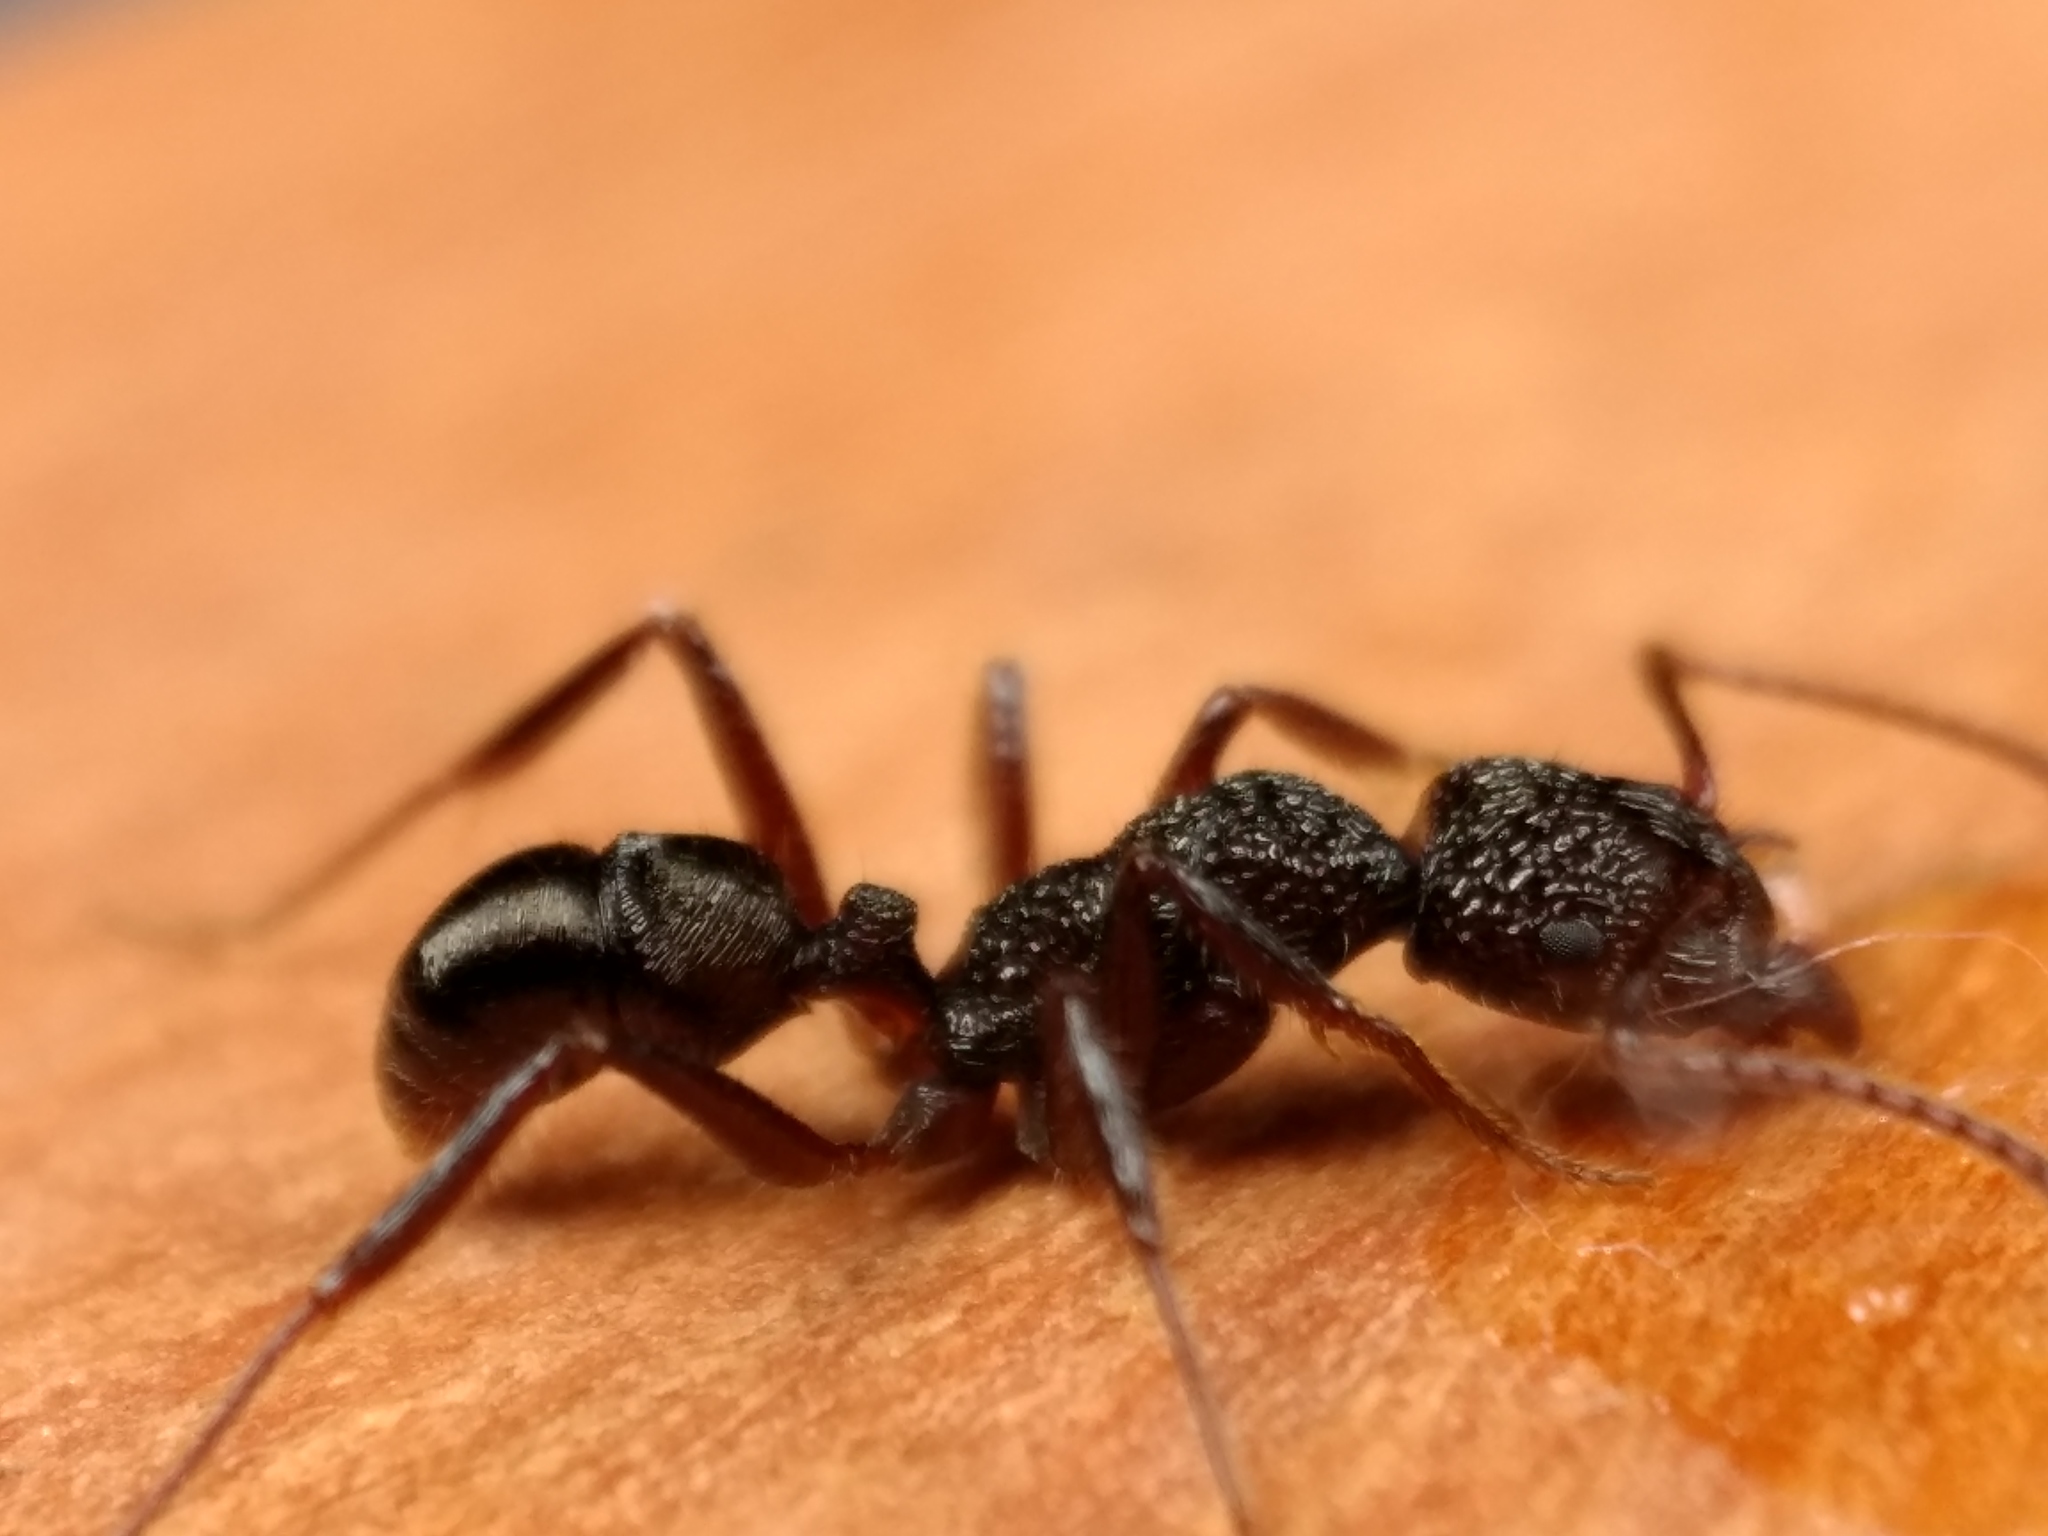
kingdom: Animalia
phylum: Arthropoda
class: Insecta
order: Hymenoptera
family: Formicidae
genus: Rhytidoponera
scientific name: Rhytidoponera impressa
